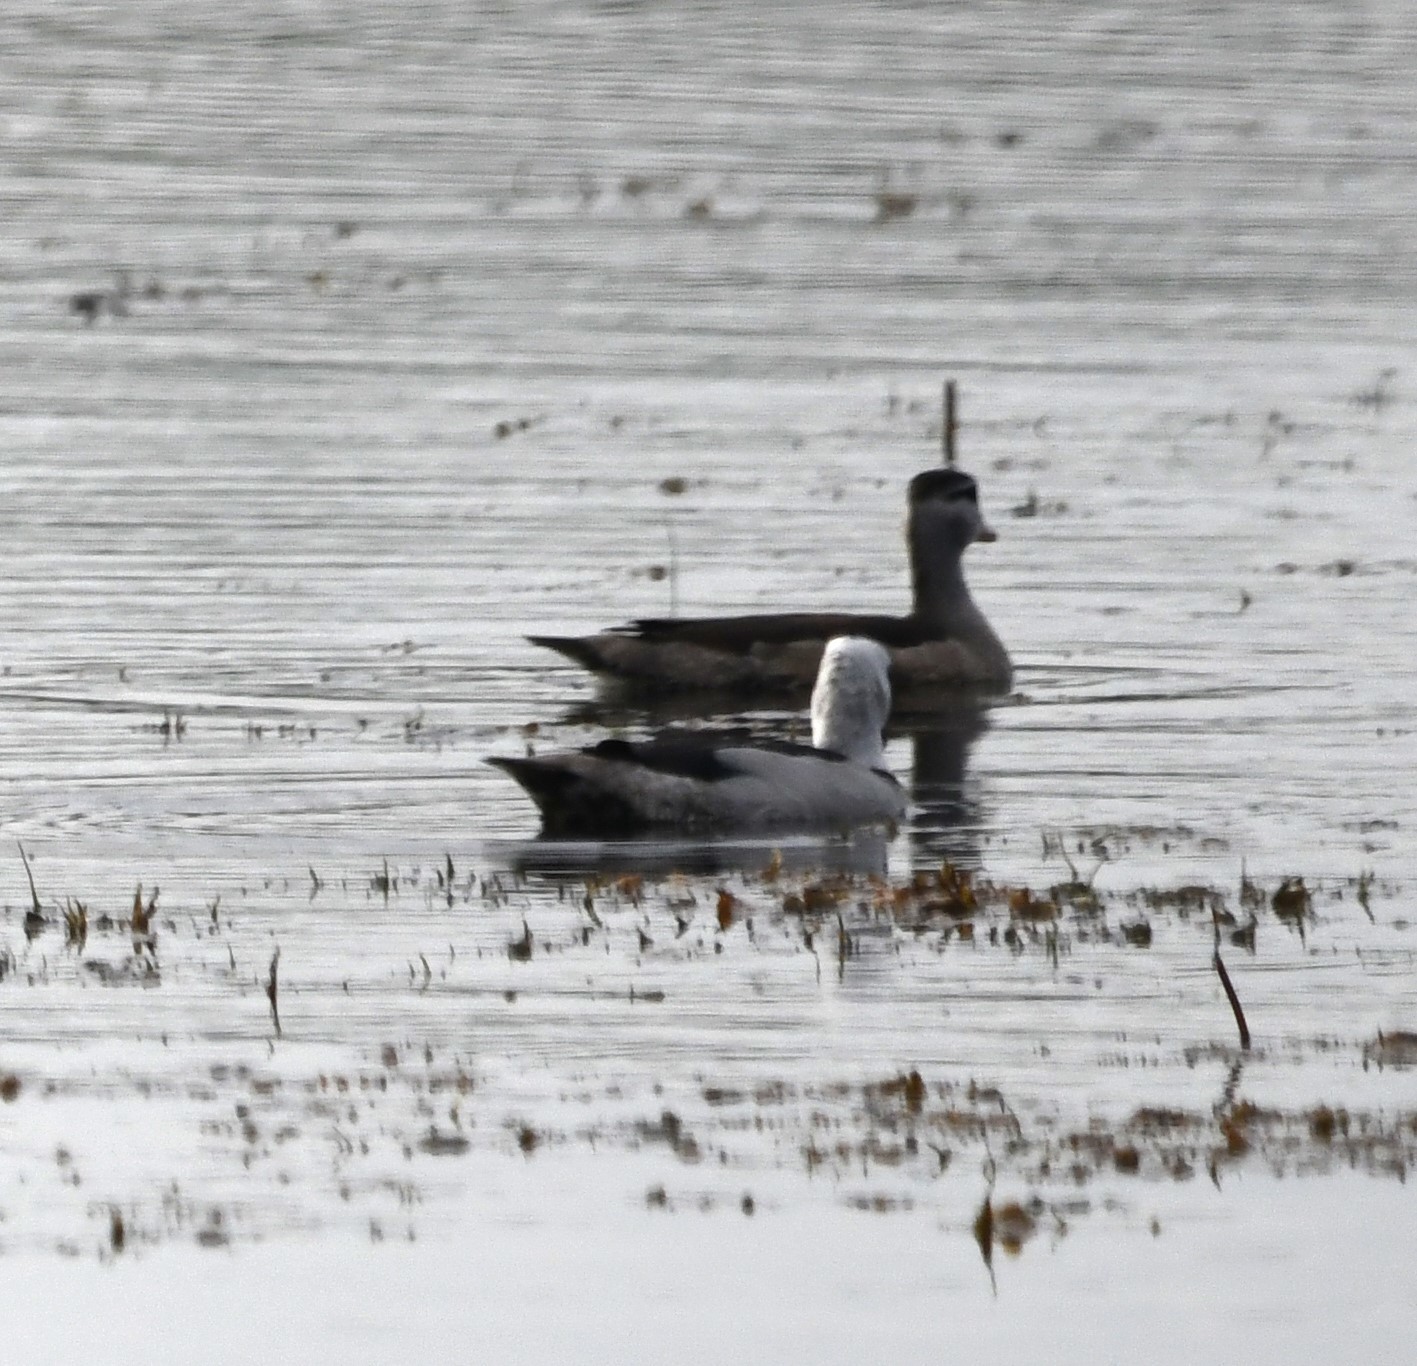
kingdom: Animalia
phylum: Chordata
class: Aves
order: Anseriformes
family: Anatidae
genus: Nettapus
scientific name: Nettapus coromandelianus
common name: Cotton pygmy-goose
